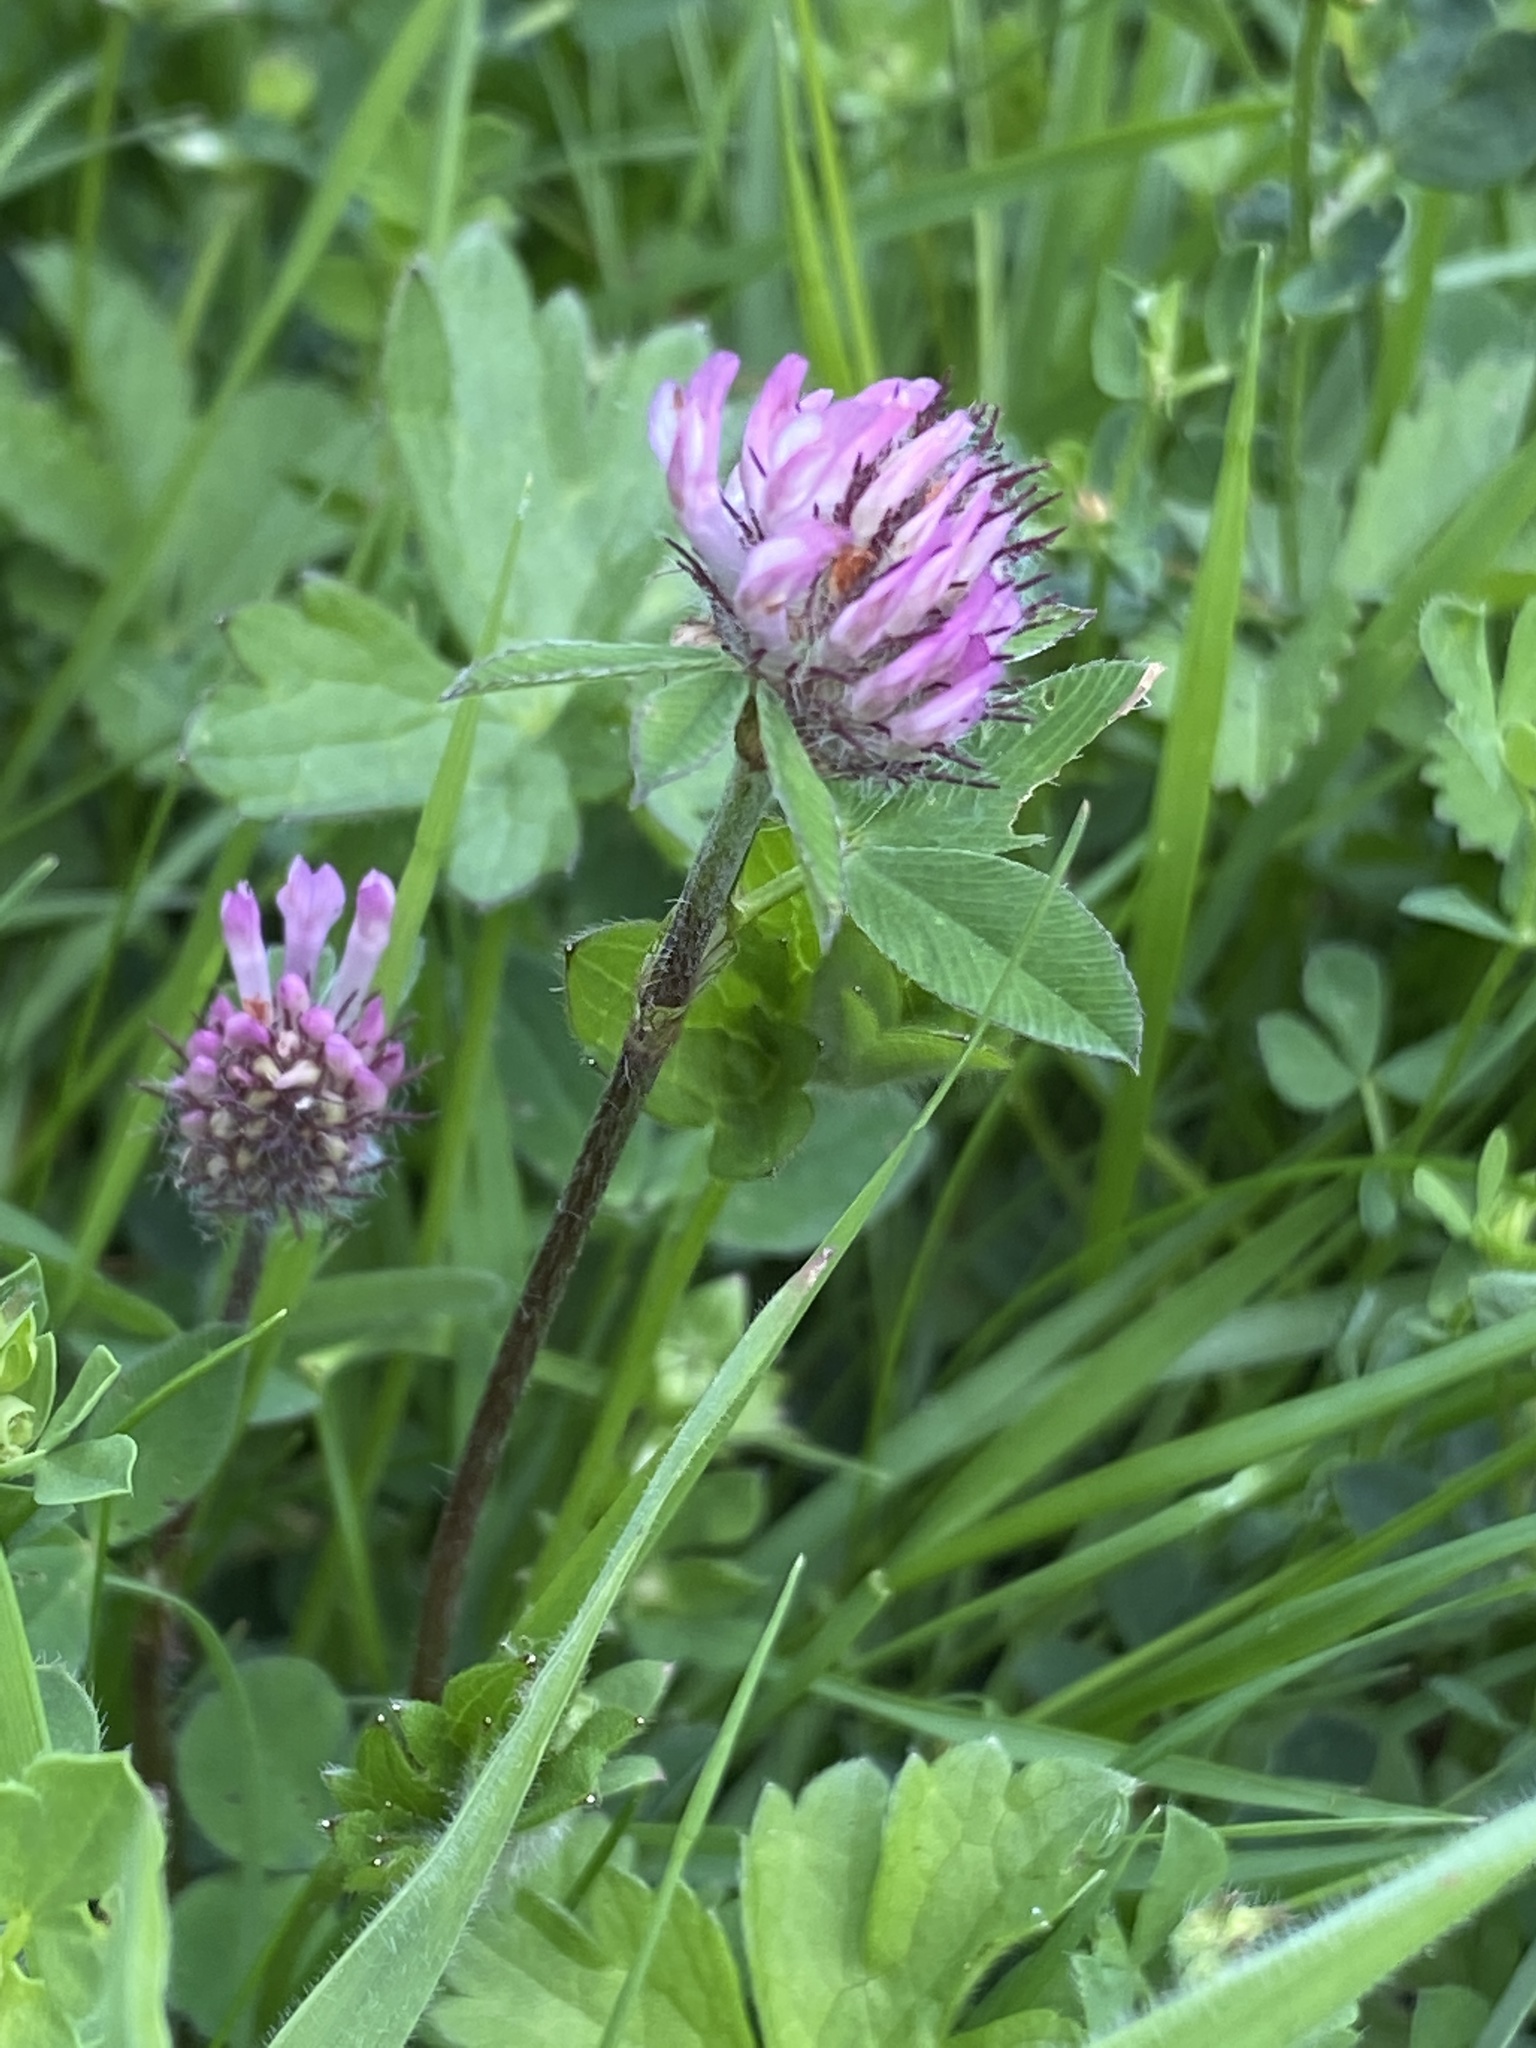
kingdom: Plantae
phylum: Tracheophyta
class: Magnoliopsida
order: Fabales
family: Fabaceae
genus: Trifolium
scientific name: Trifolium pratense
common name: Red clover
